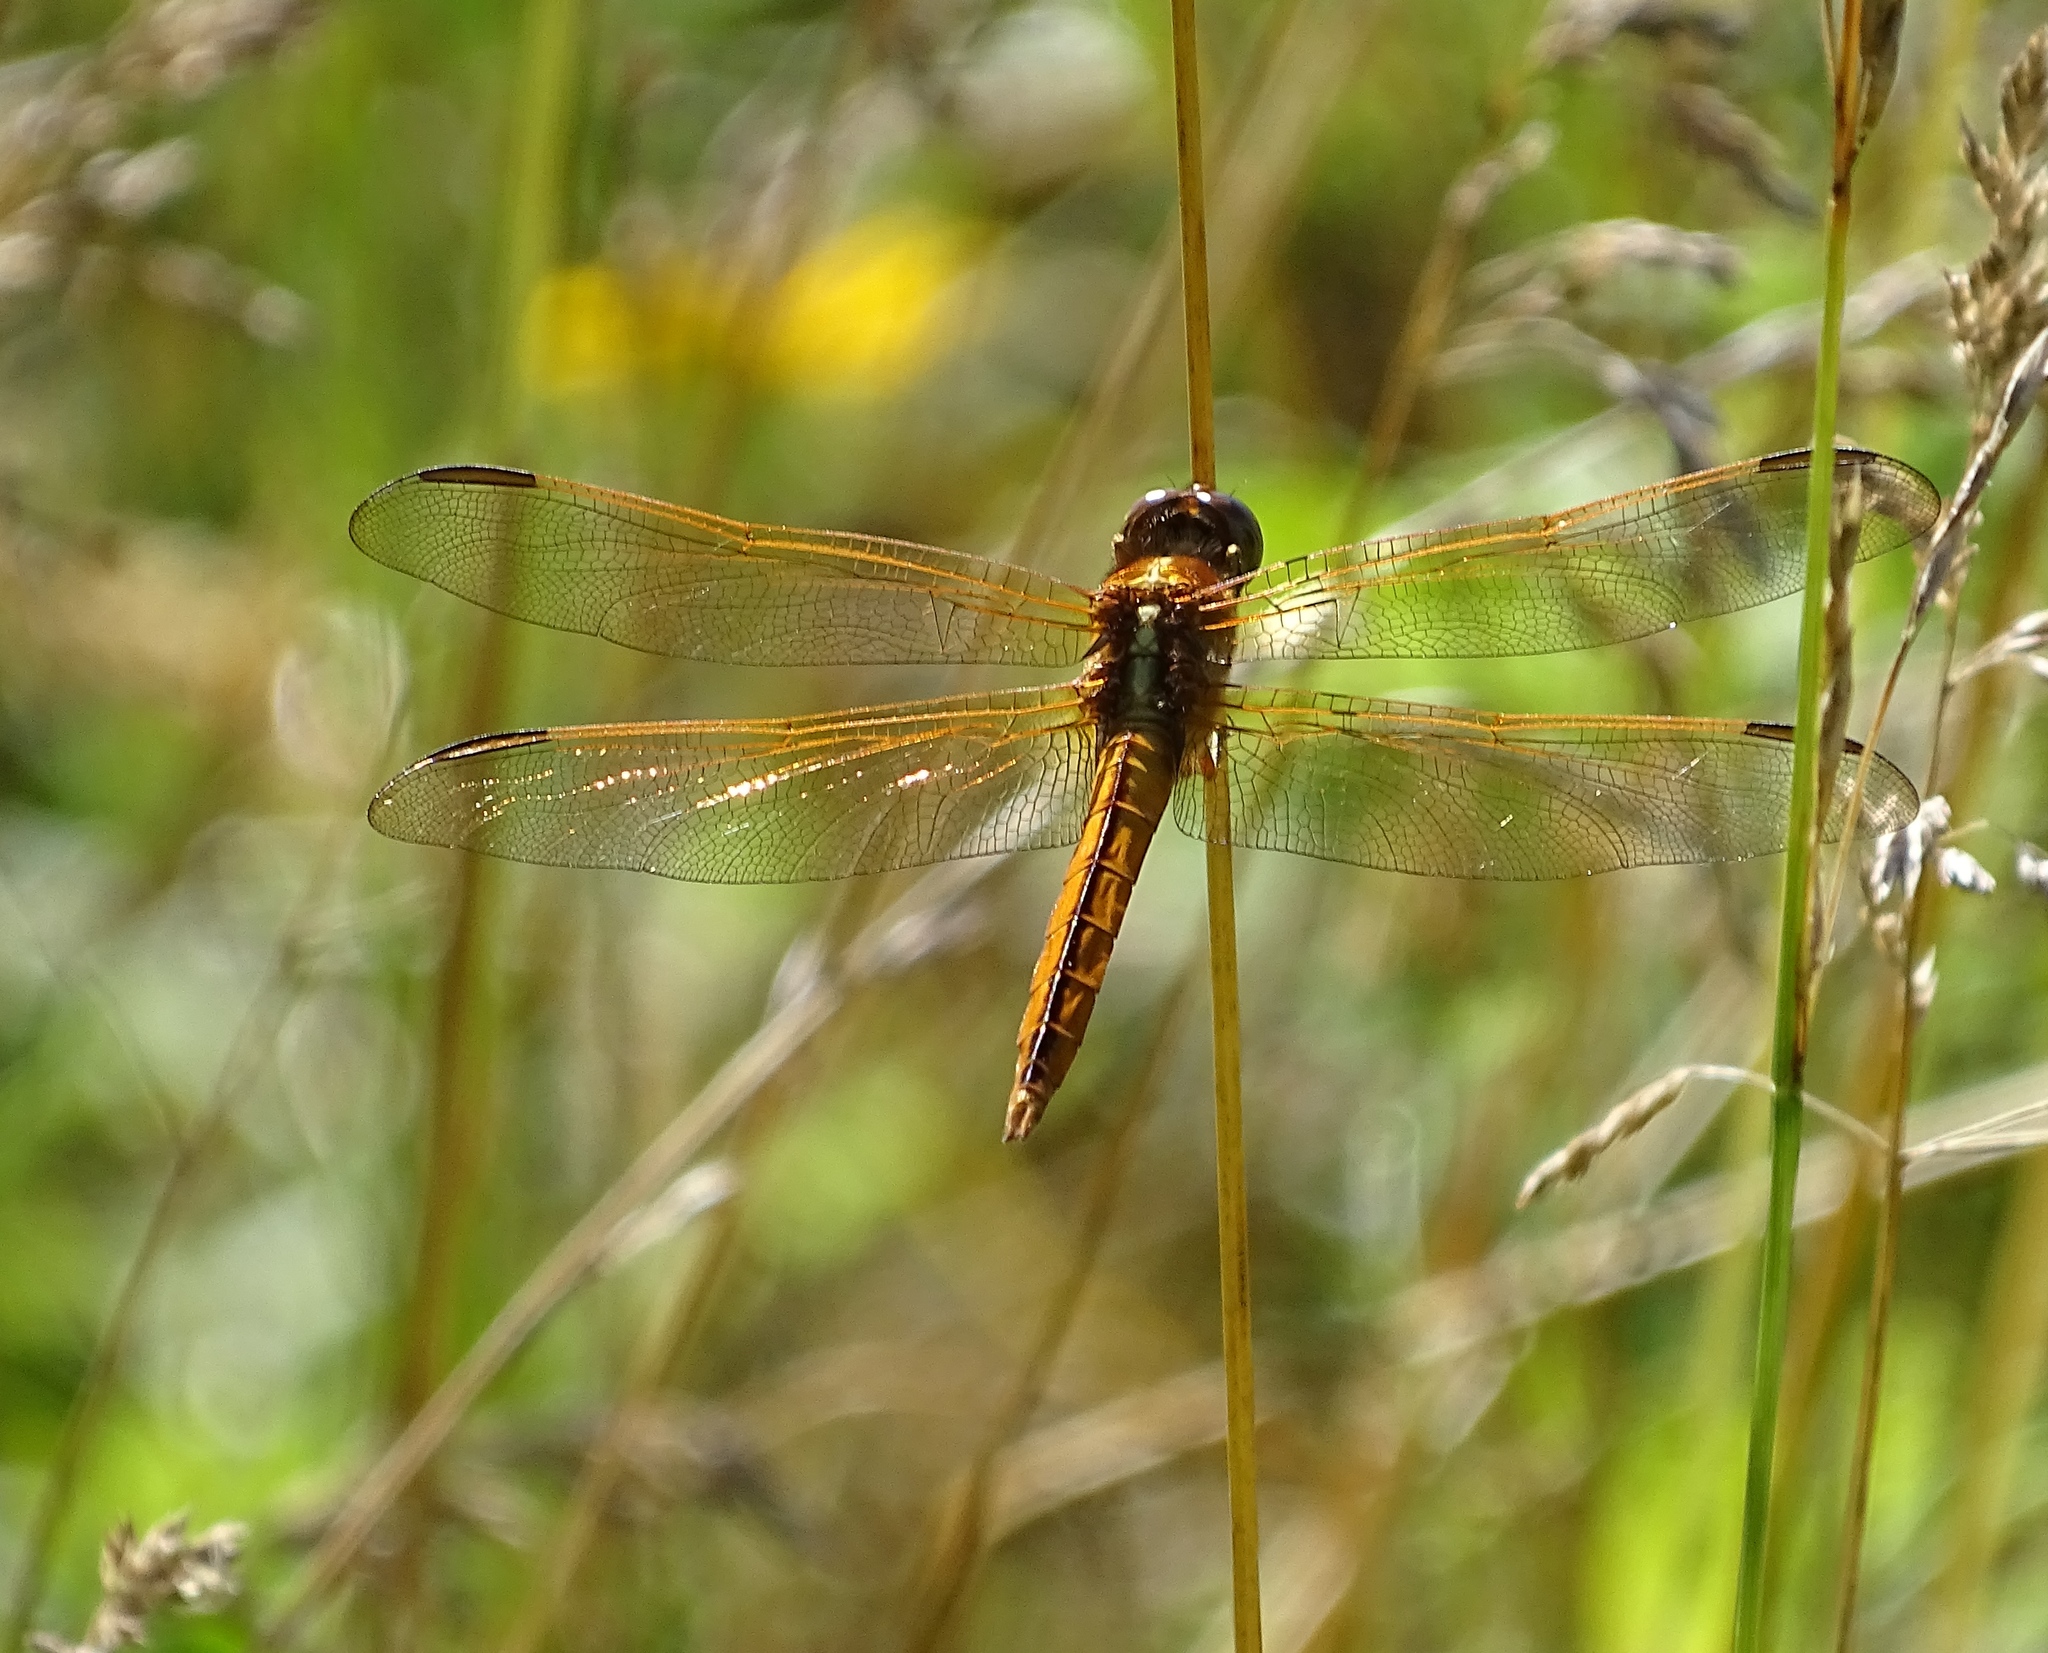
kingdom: Animalia
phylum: Arthropoda
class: Insecta
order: Odonata
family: Libellulidae
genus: Libellula
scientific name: Libellula needhami
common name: Needham's skimmer
